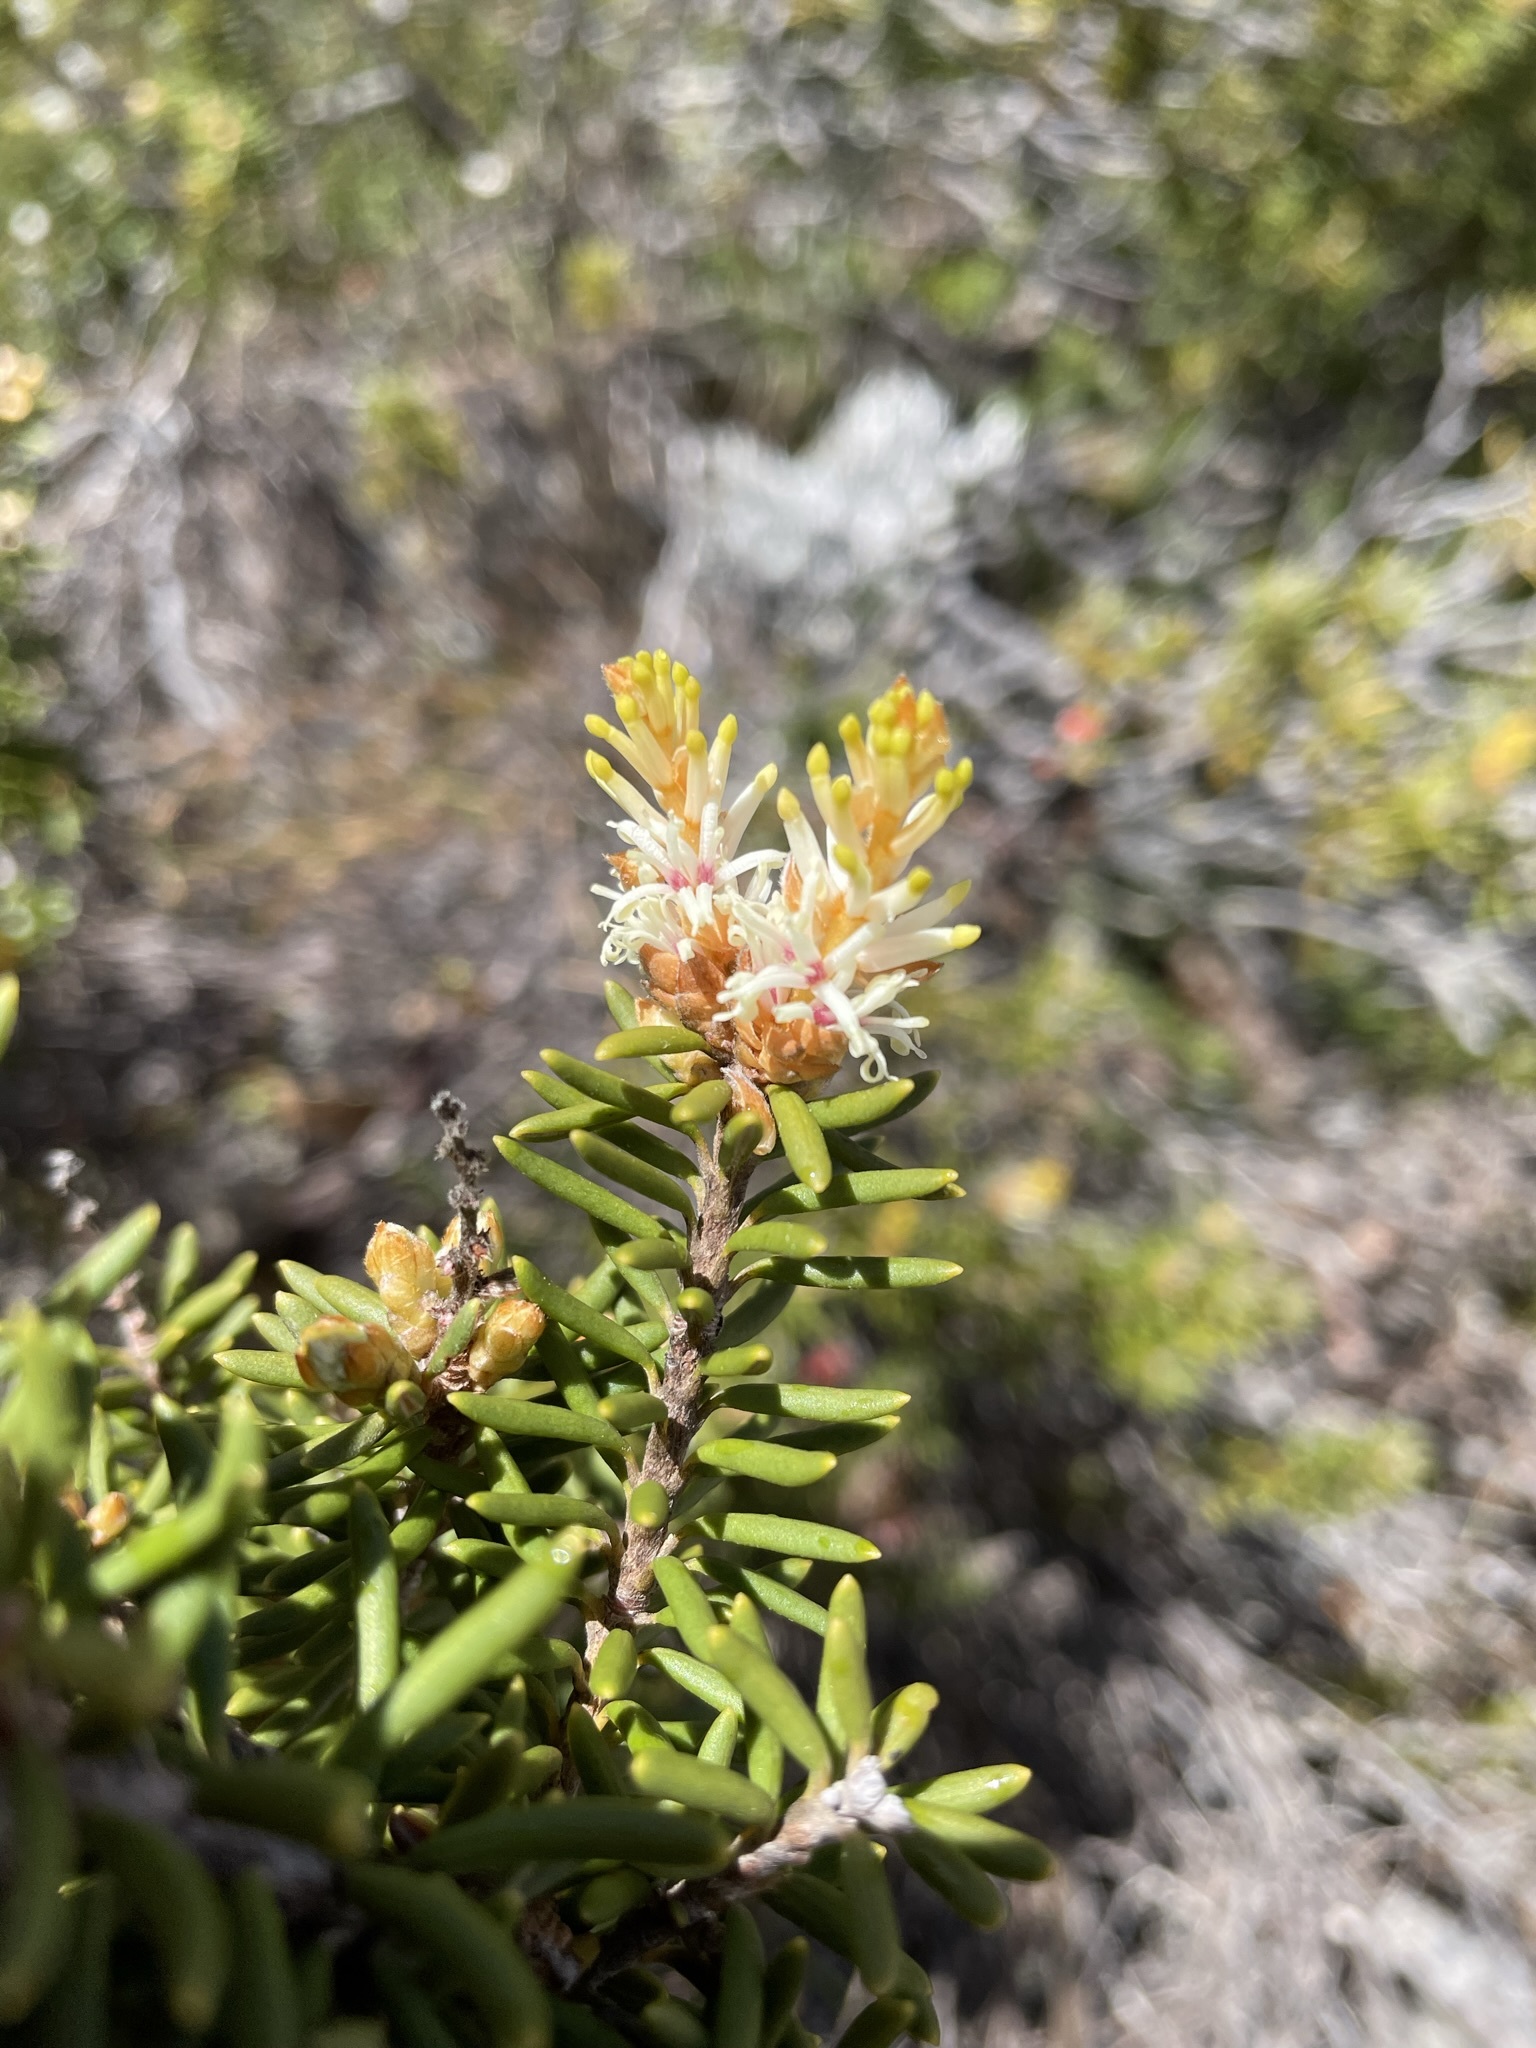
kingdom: Plantae
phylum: Tracheophyta
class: Magnoliopsida
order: Proteales
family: Proteaceae
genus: Orites
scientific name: Orites revolutus
